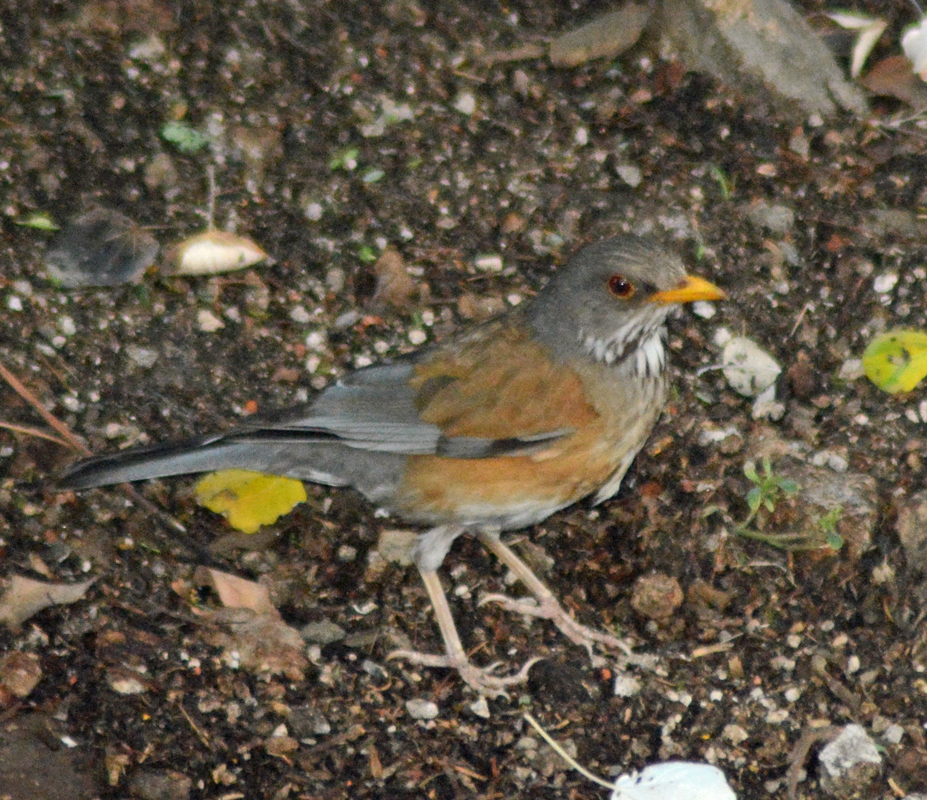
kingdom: Animalia
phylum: Chordata
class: Aves
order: Passeriformes
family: Turdidae
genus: Turdus
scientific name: Turdus rufopalliatus
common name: Rufous-backed robin
